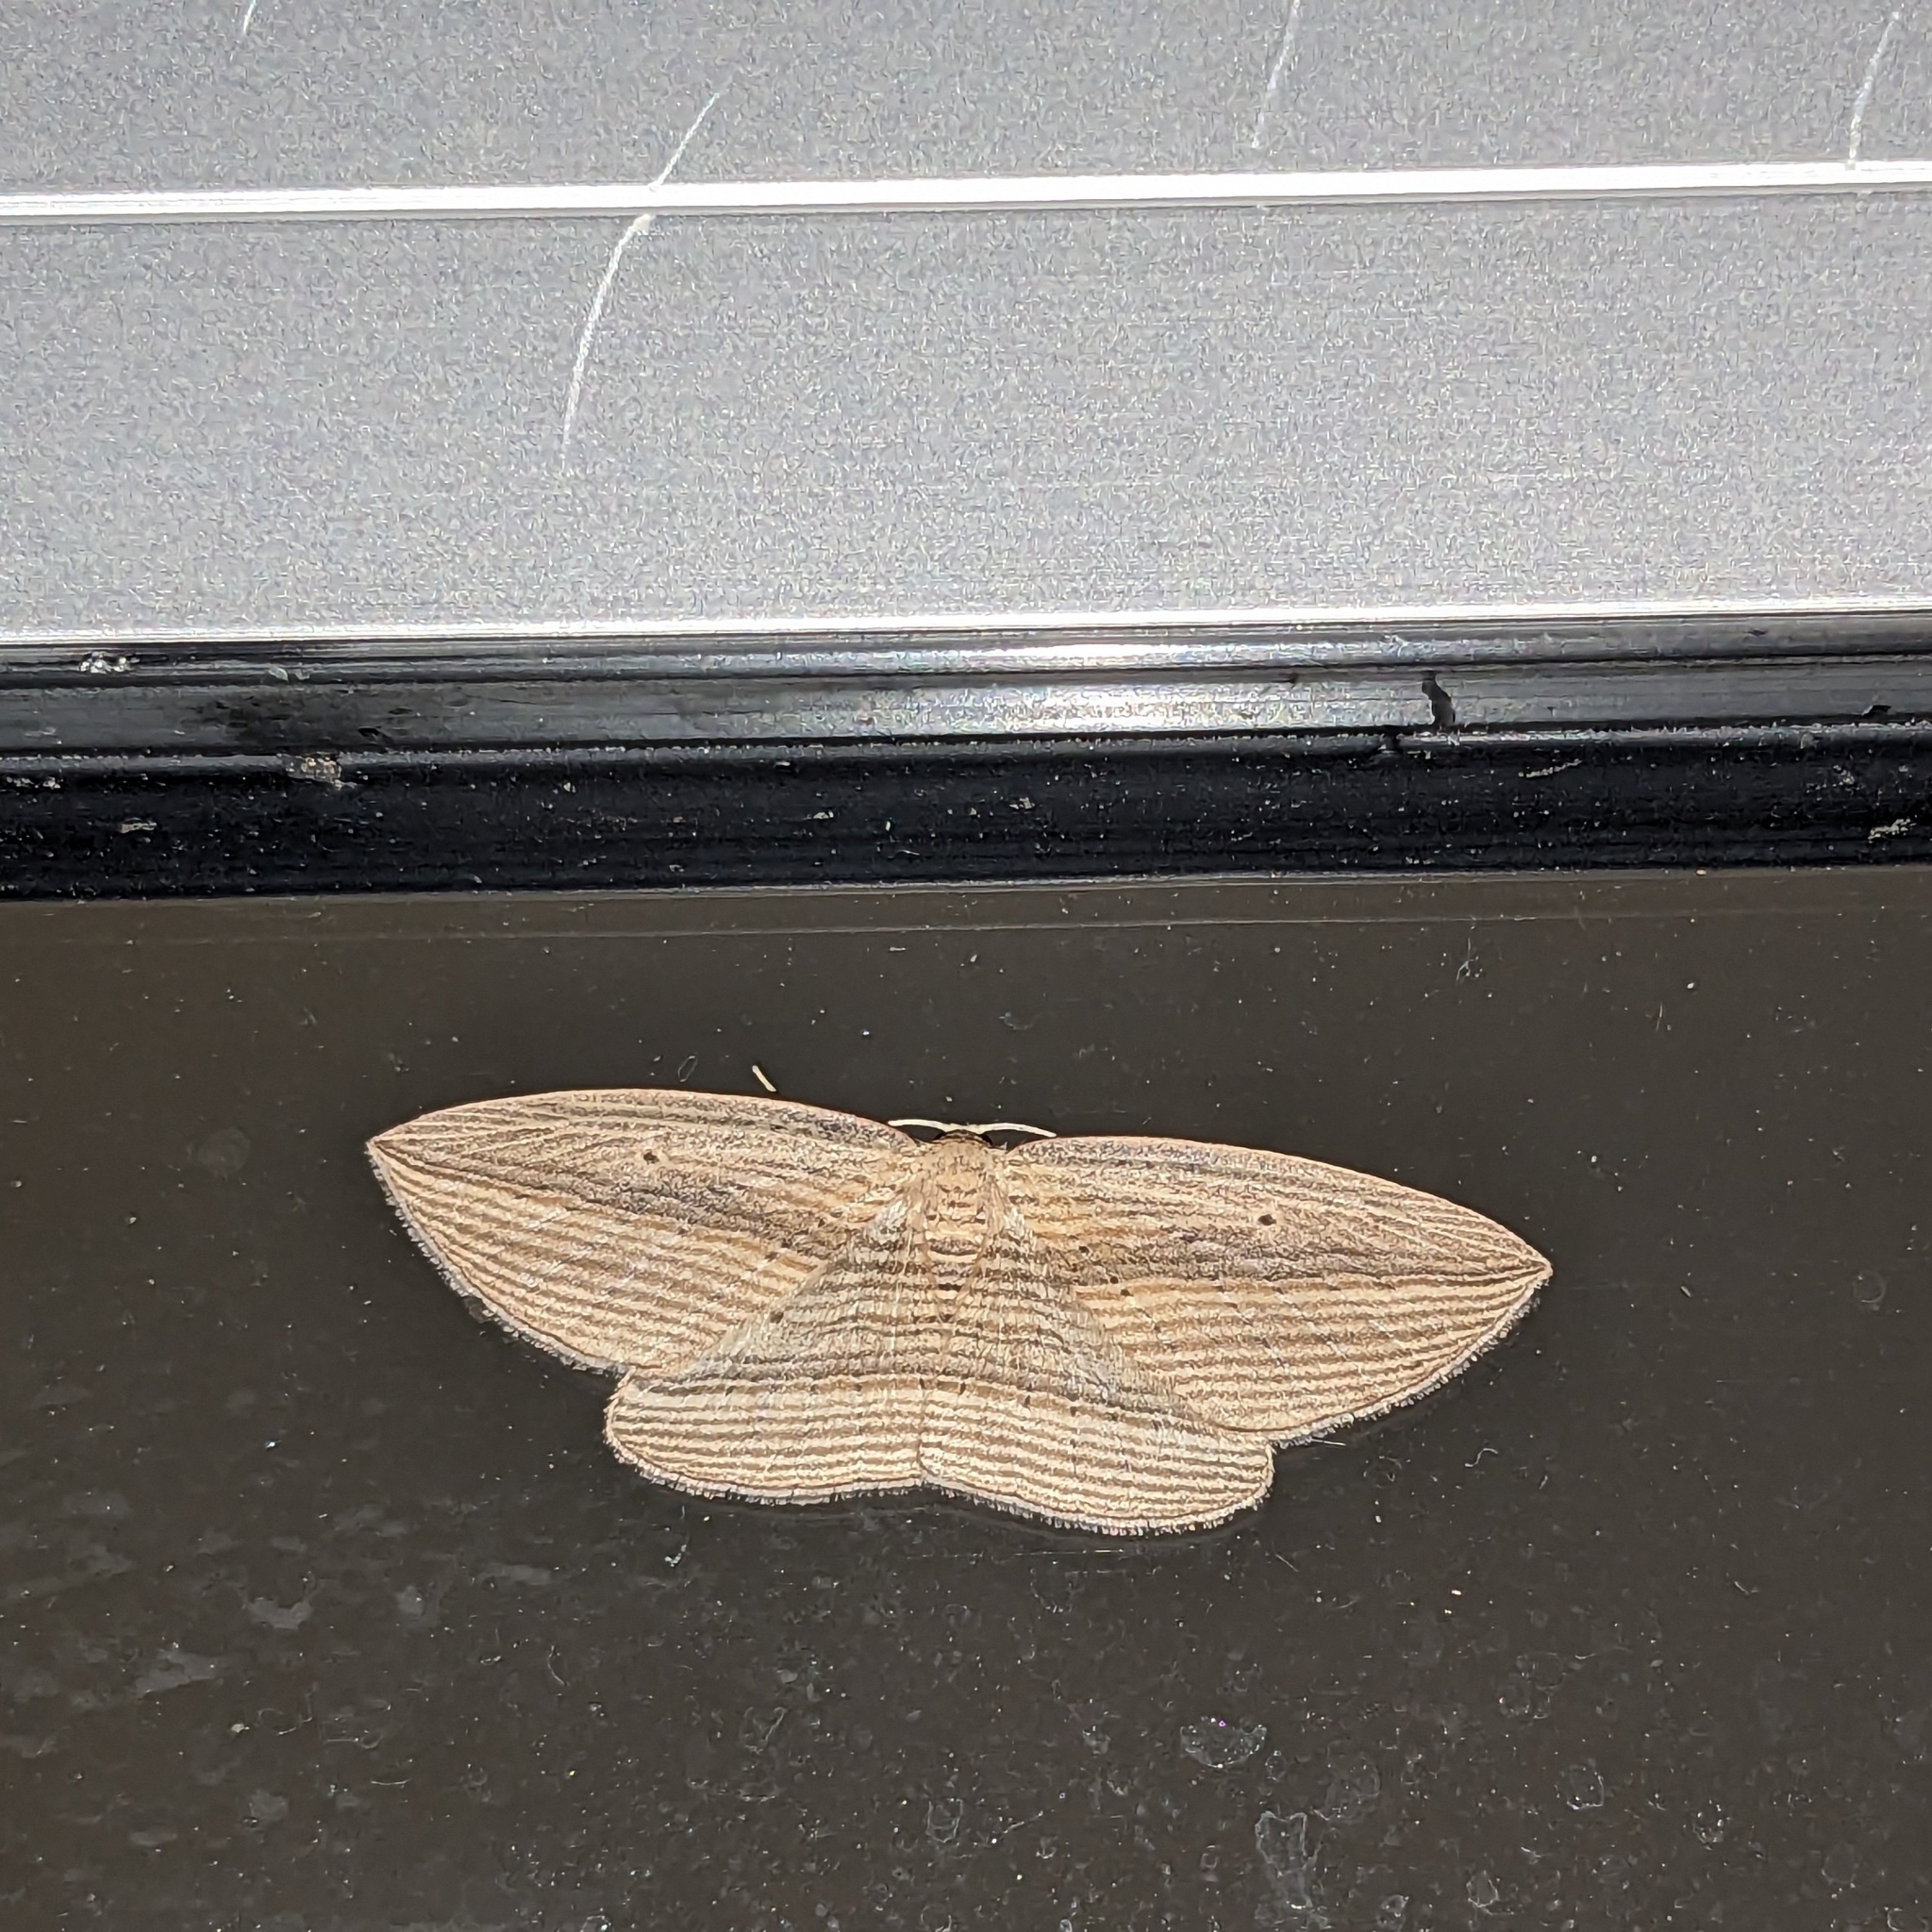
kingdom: Animalia
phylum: Arthropoda
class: Insecta
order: Lepidoptera
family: Geometridae
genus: Epiphryne
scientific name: Epiphryne verriculata
